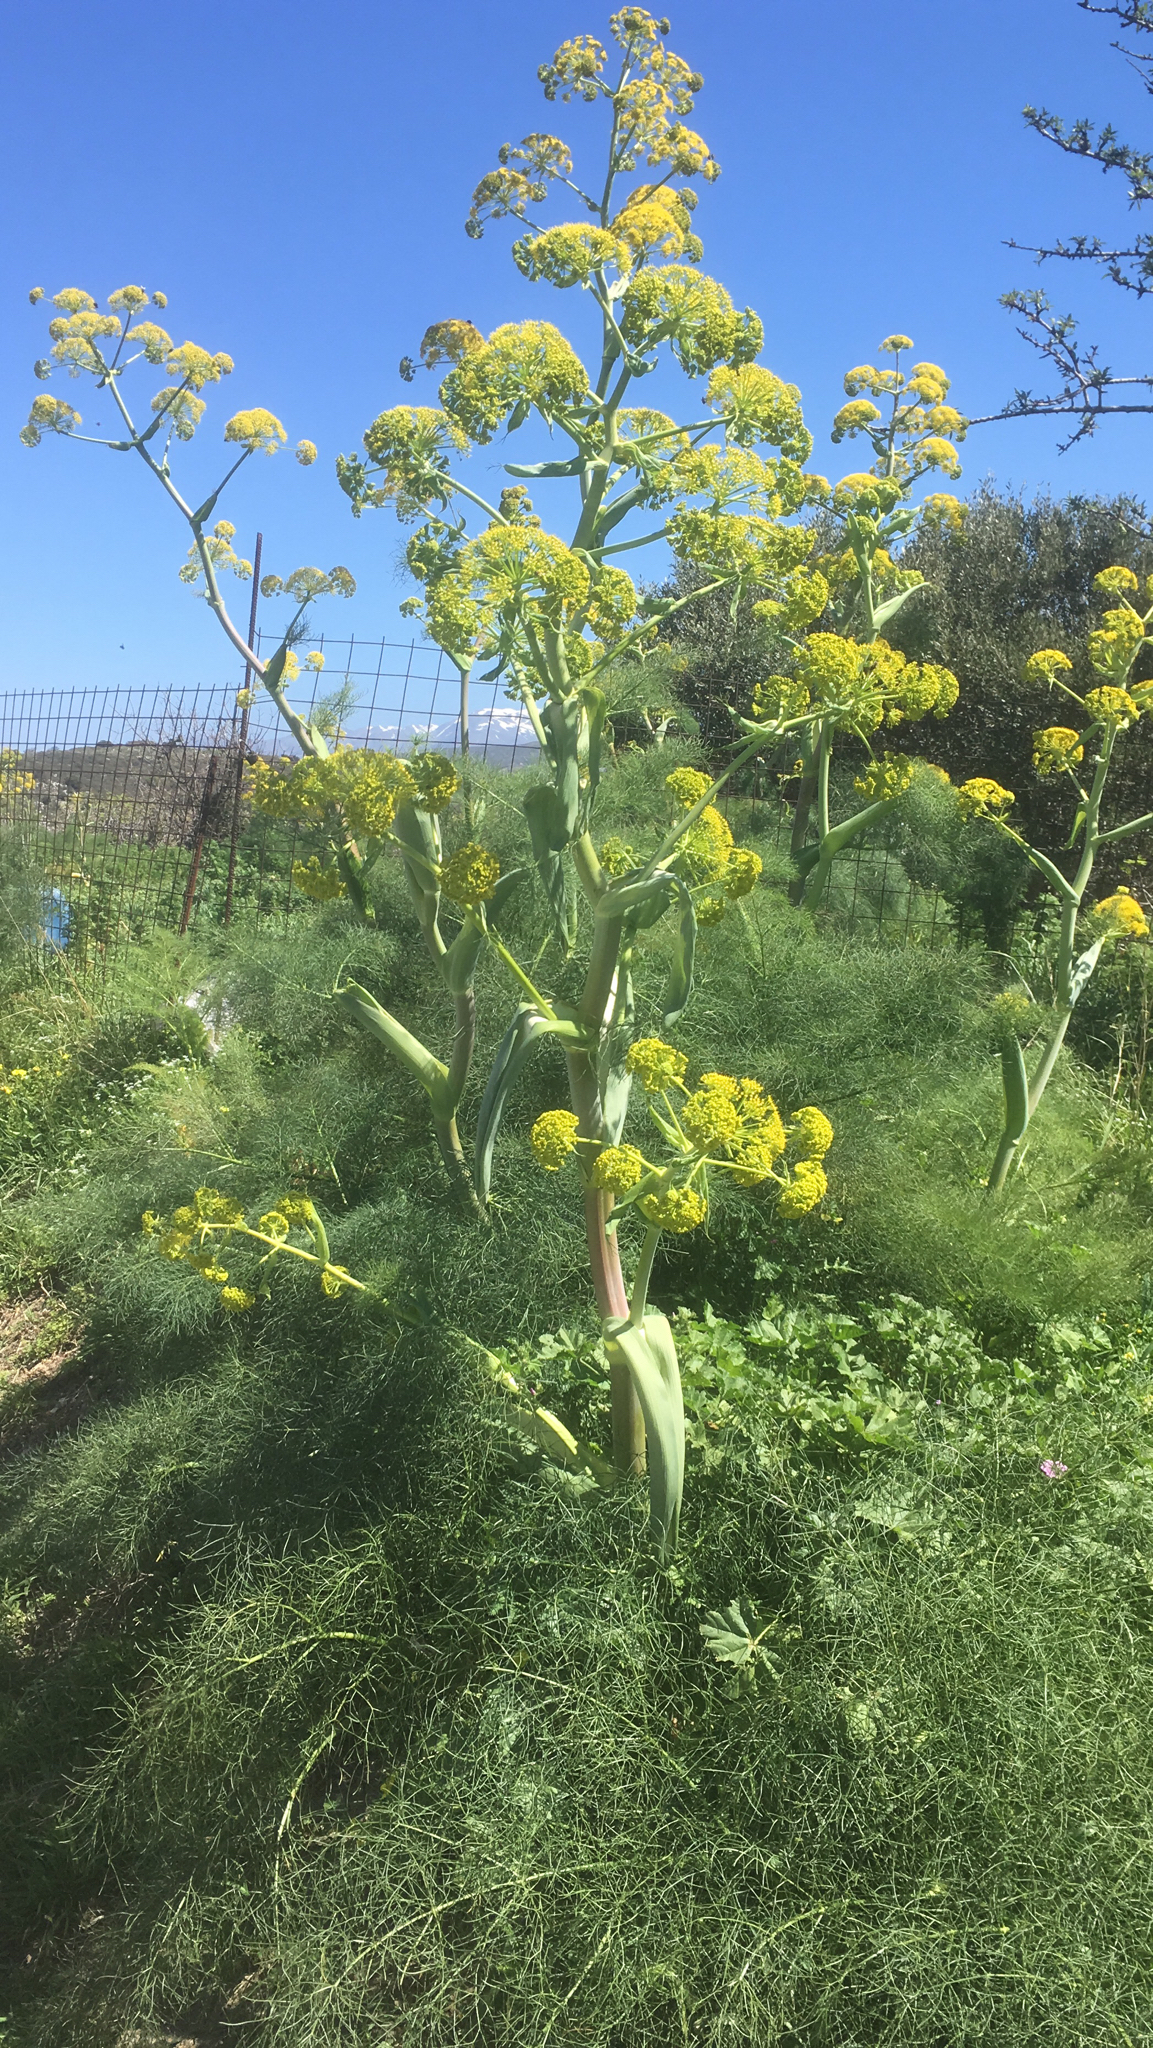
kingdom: Plantae
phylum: Tracheophyta
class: Magnoliopsida
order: Apiales
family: Apiaceae
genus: Ferula
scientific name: Ferula communis
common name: Giant fennel
